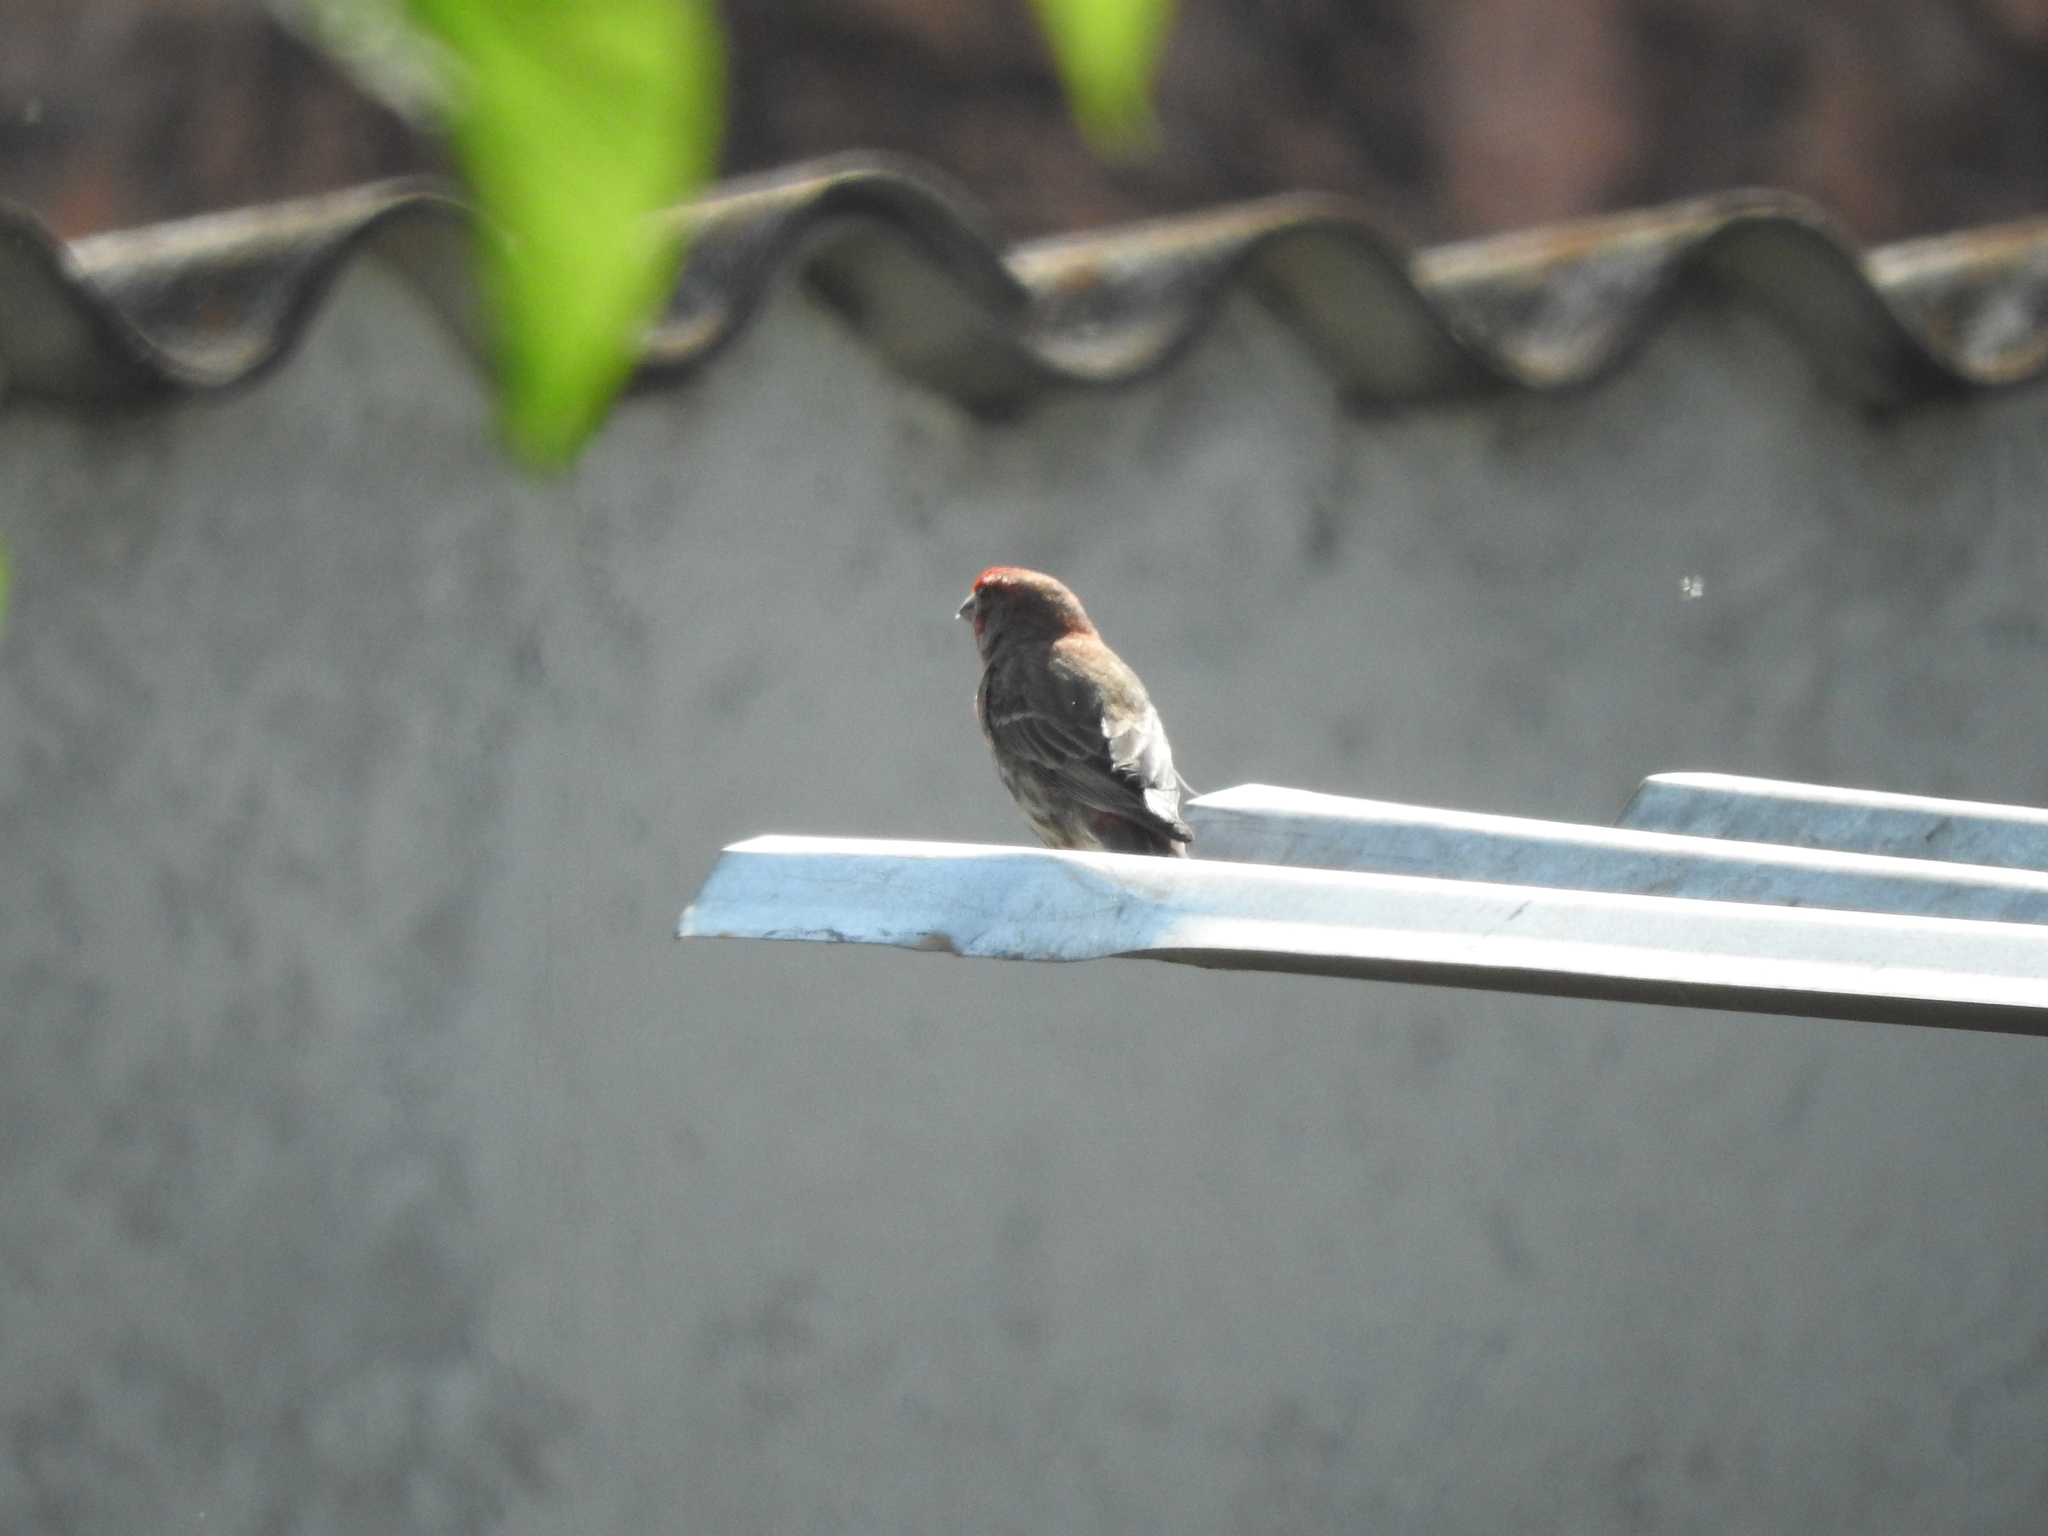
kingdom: Animalia
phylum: Chordata
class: Aves
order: Passeriformes
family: Fringillidae
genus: Haemorhous
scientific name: Haemorhous mexicanus
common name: House finch
